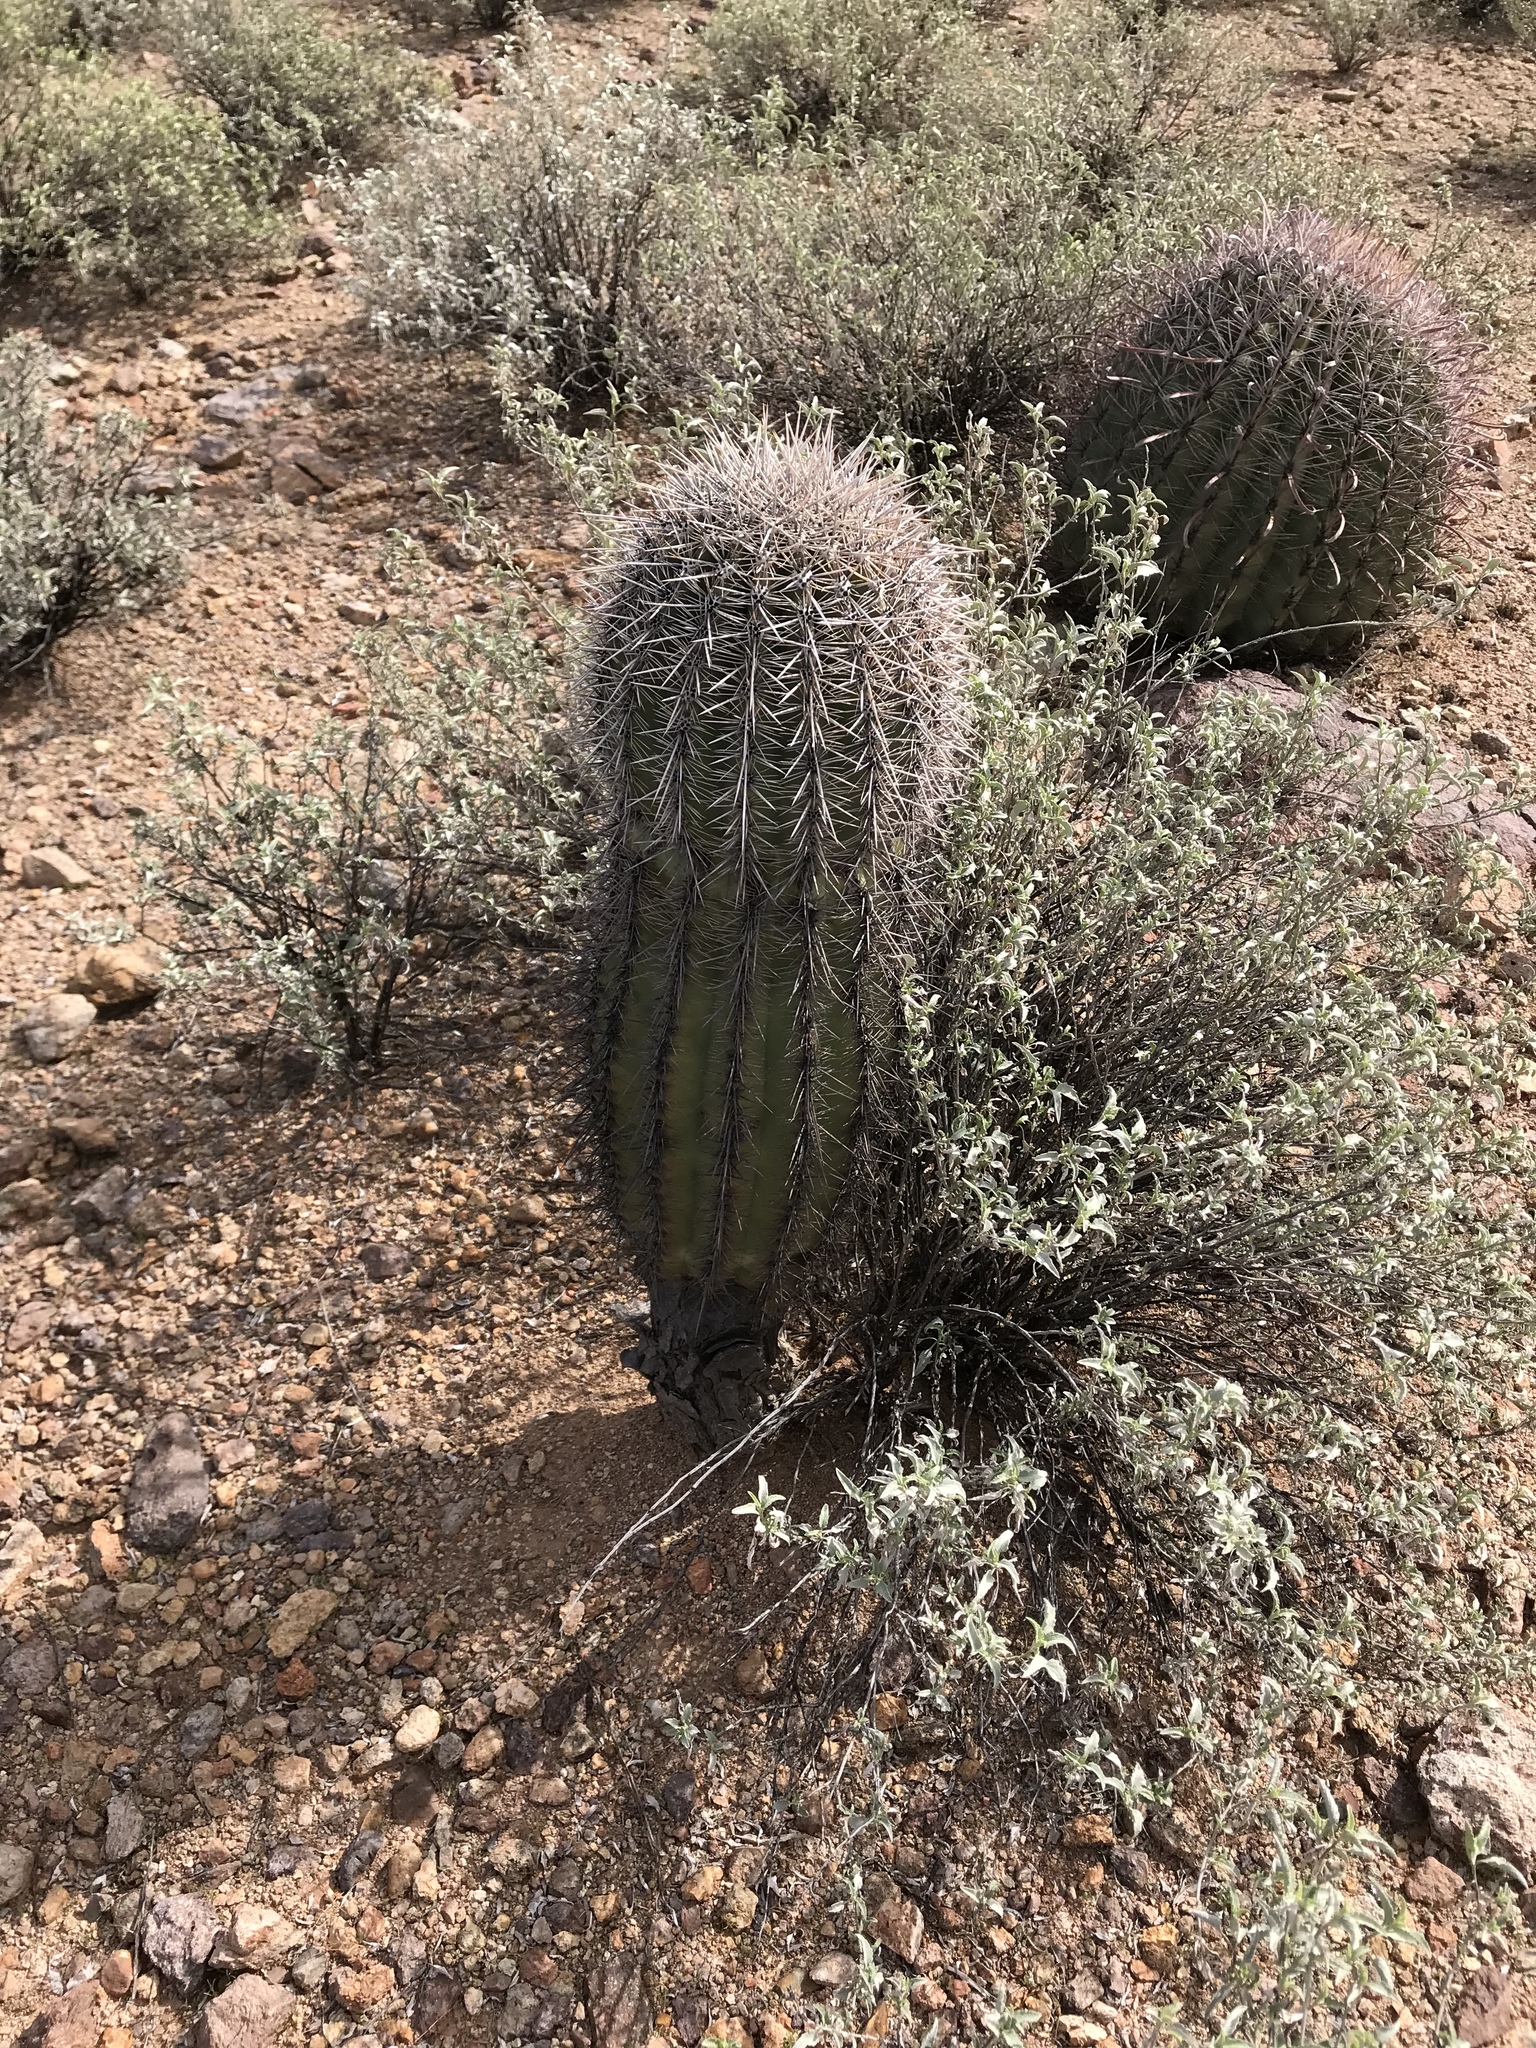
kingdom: Plantae
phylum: Tracheophyta
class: Magnoliopsida
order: Caryophyllales
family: Cactaceae
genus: Carnegiea
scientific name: Carnegiea gigantea
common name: Saguaro
